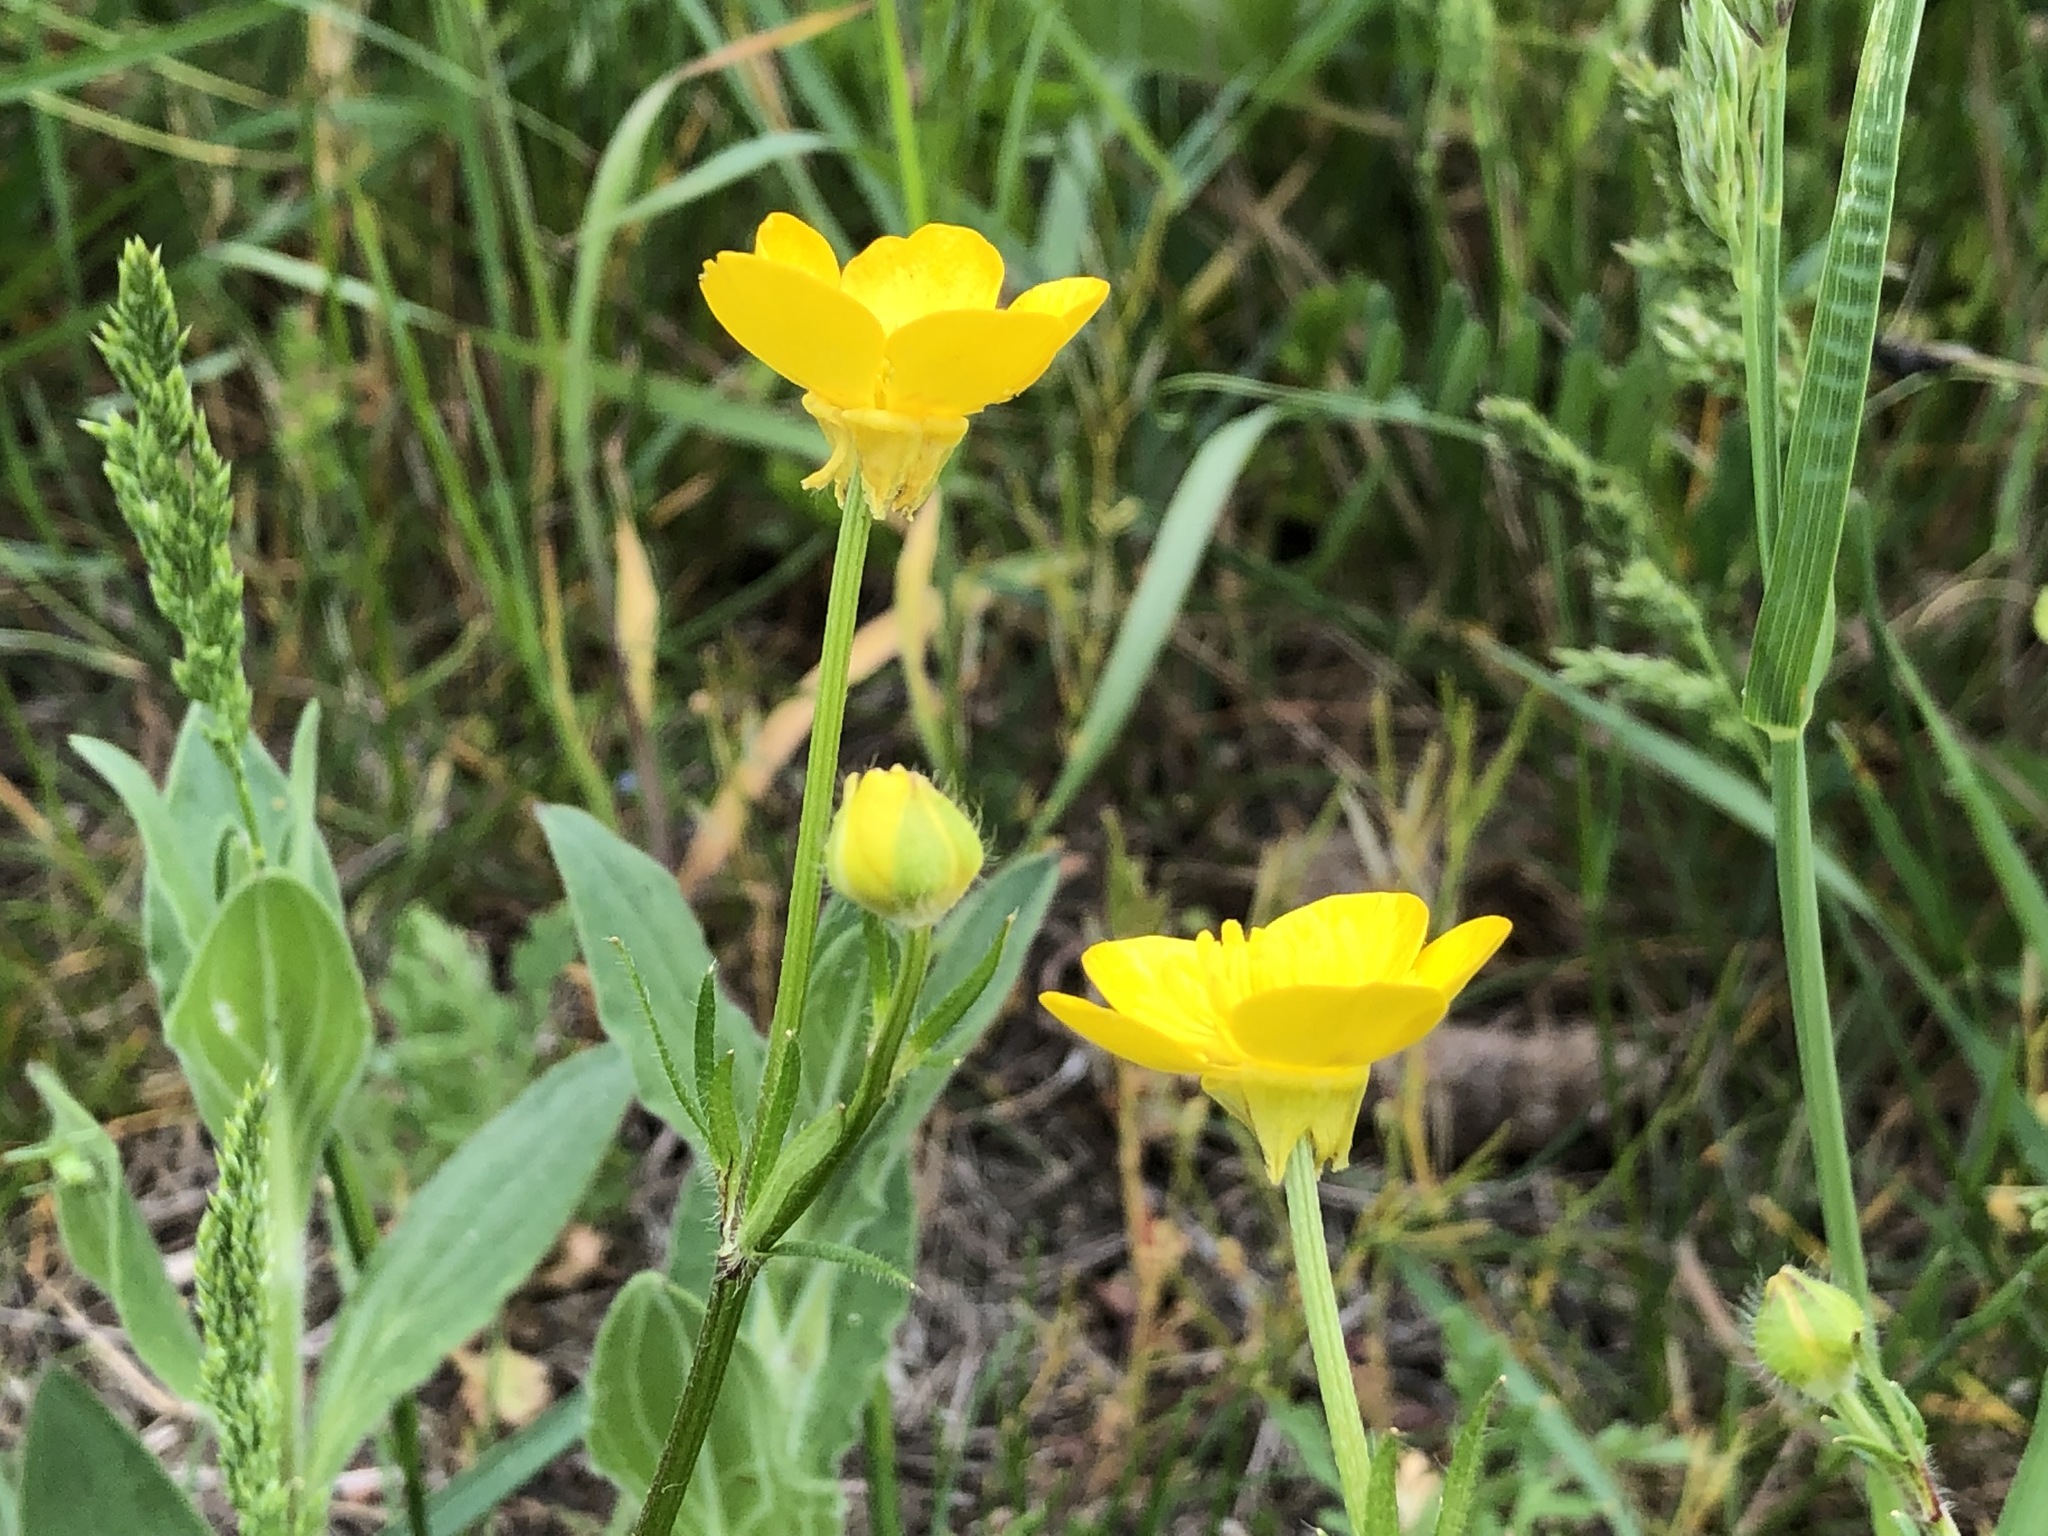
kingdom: Plantae
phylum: Tracheophyta
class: Magnoliopsida
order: Ranunculales
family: Ranunculaceae
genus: Ranunculus
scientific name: Ranunculus bulbosus
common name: Bulbous buttercup
